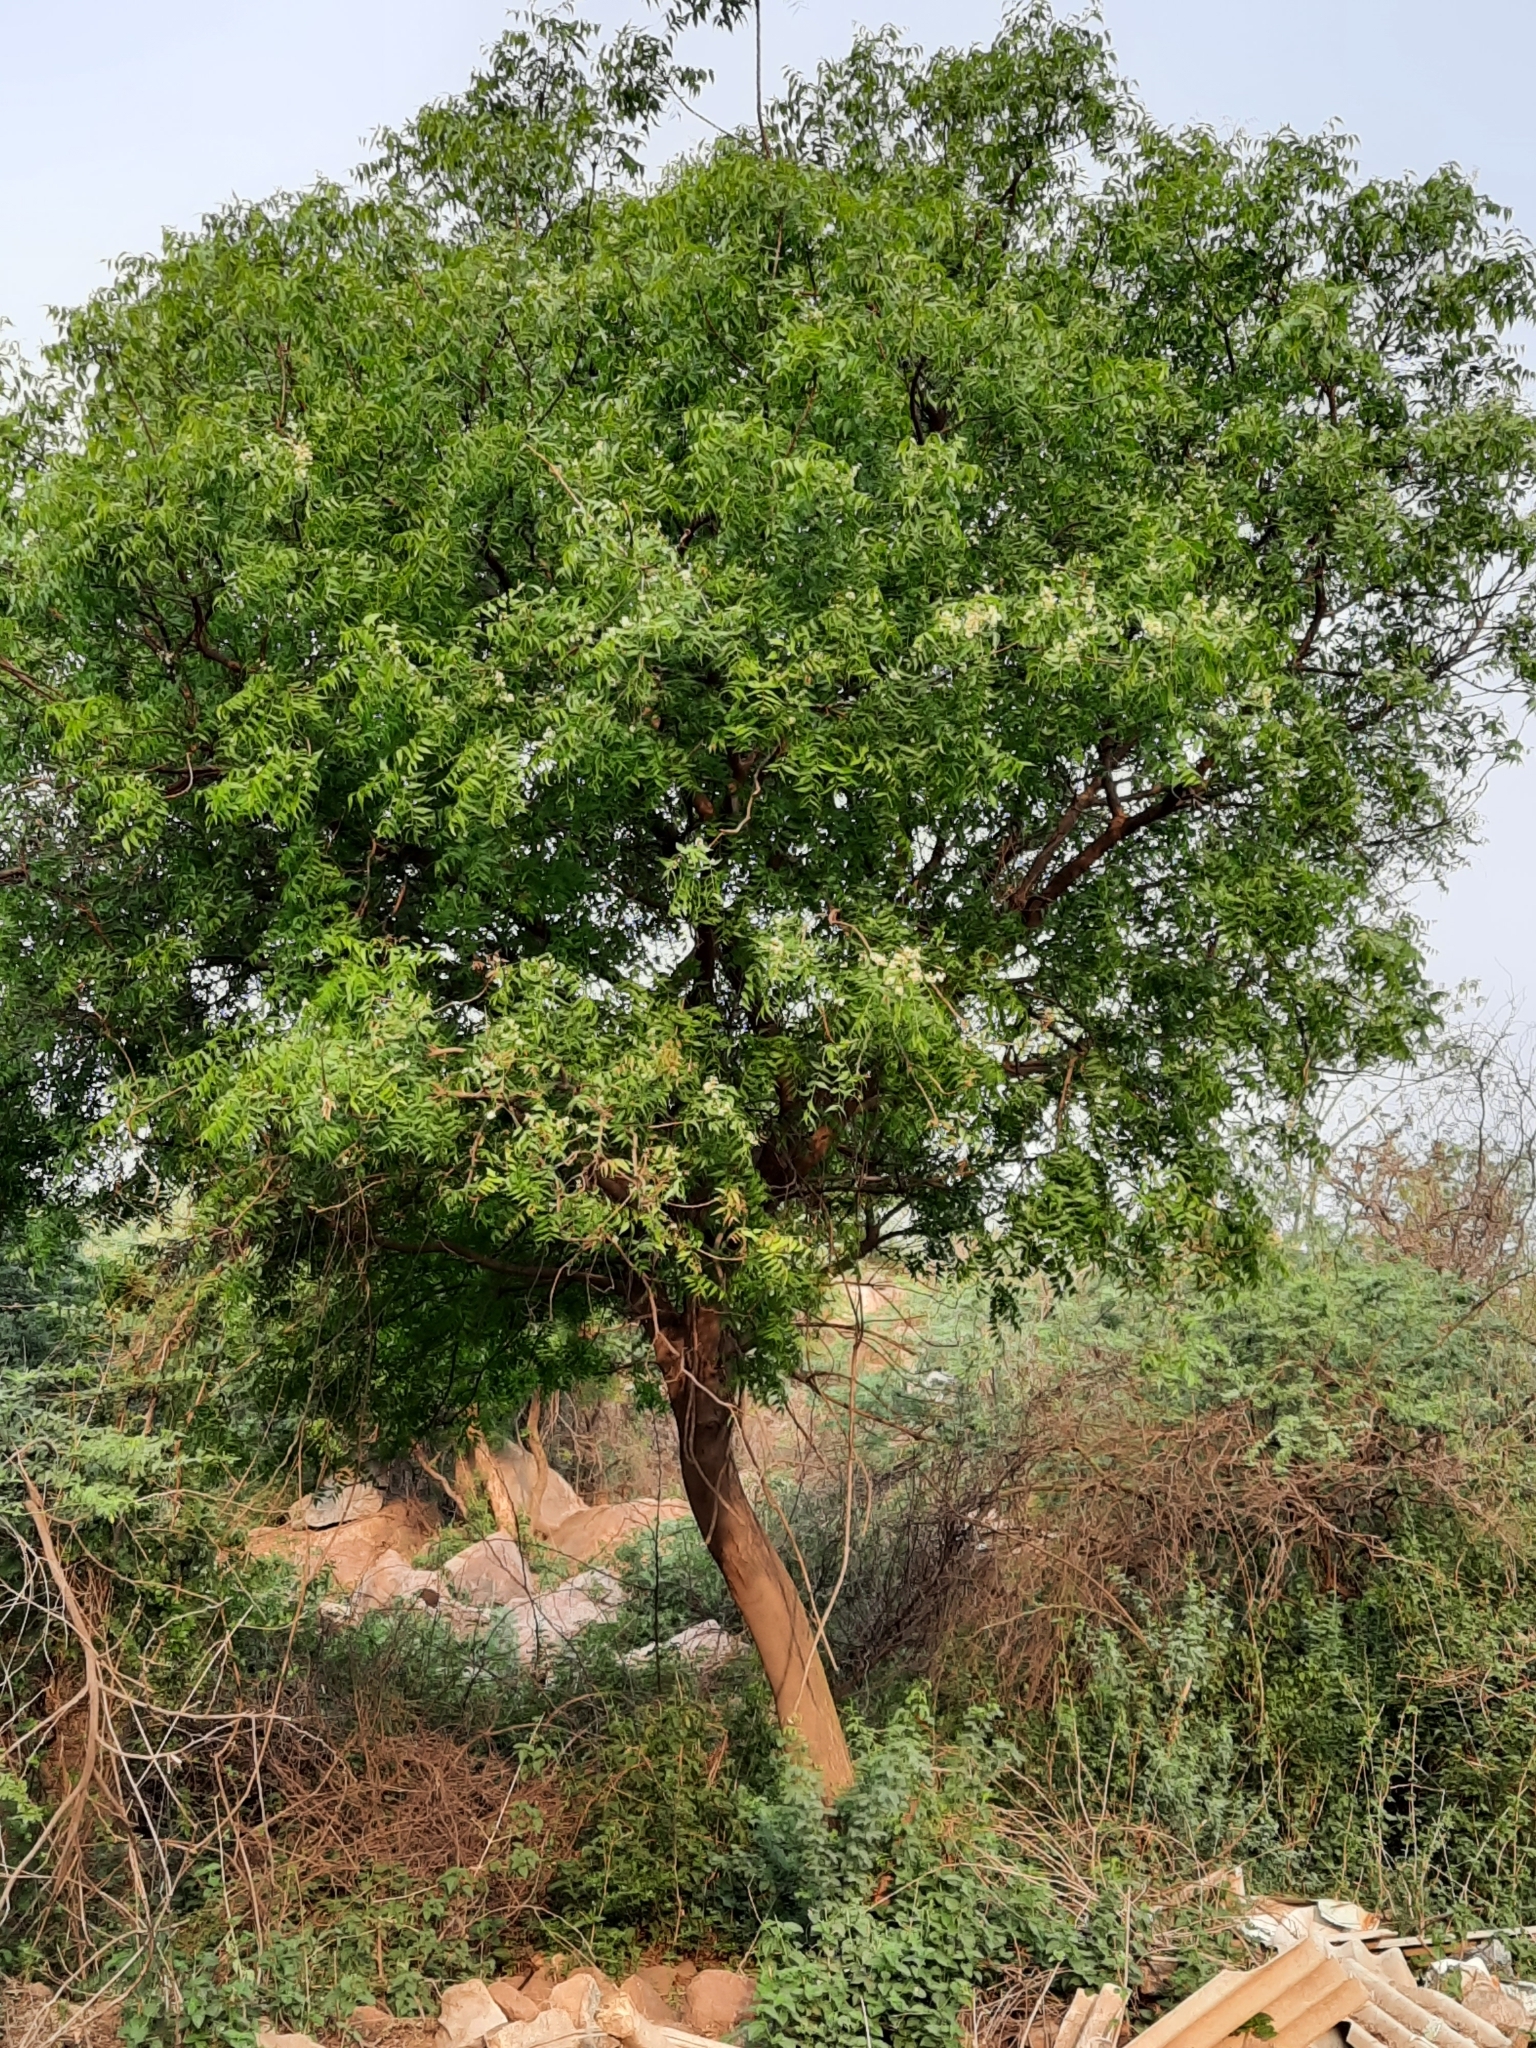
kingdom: Plantae
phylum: Tracheophyta
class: Magnoliopsida
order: Sapindales
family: Meliaceae
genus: Azadirachta
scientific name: Azadirachta indica
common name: Neem
